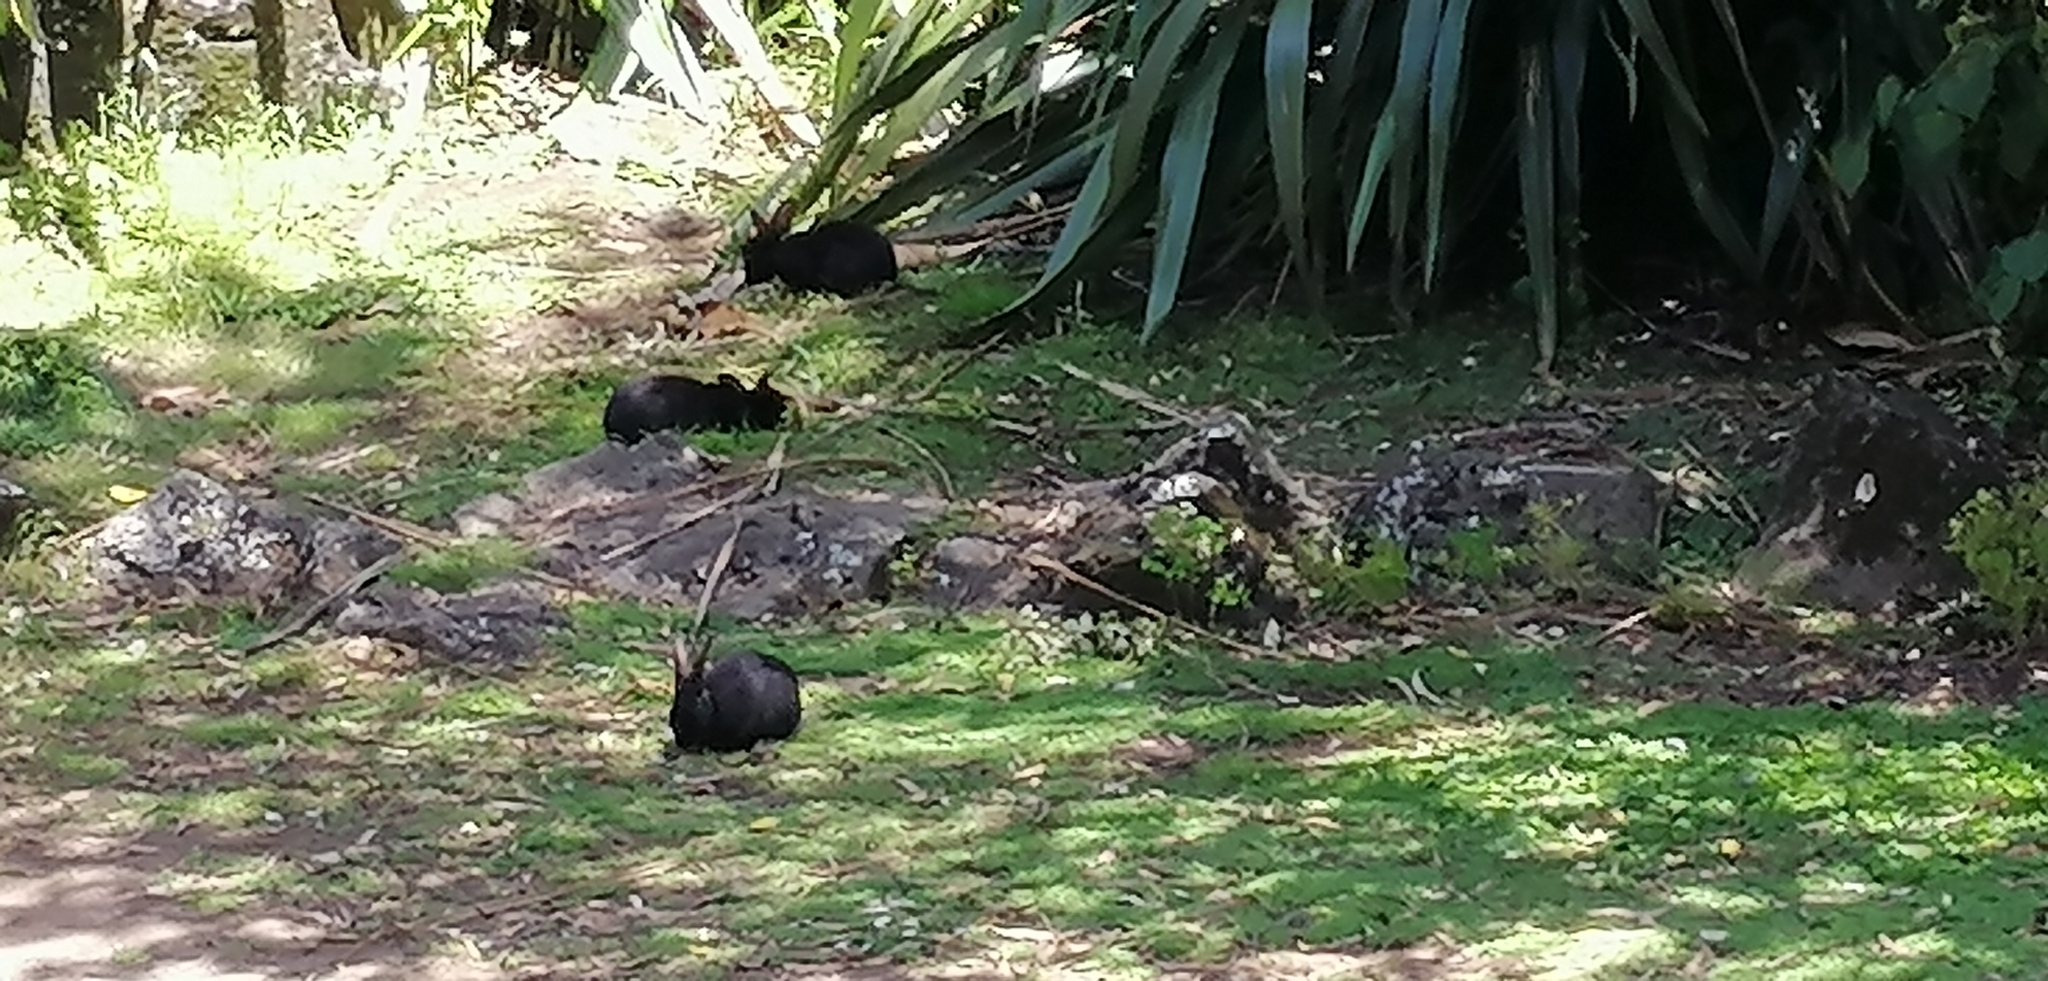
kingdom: Animalia
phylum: Chordata
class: Mammalia
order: Lagomorpha
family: Leporidae
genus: Oryctolagus
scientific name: Oryctolagus cuniculus
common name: European rabbit
